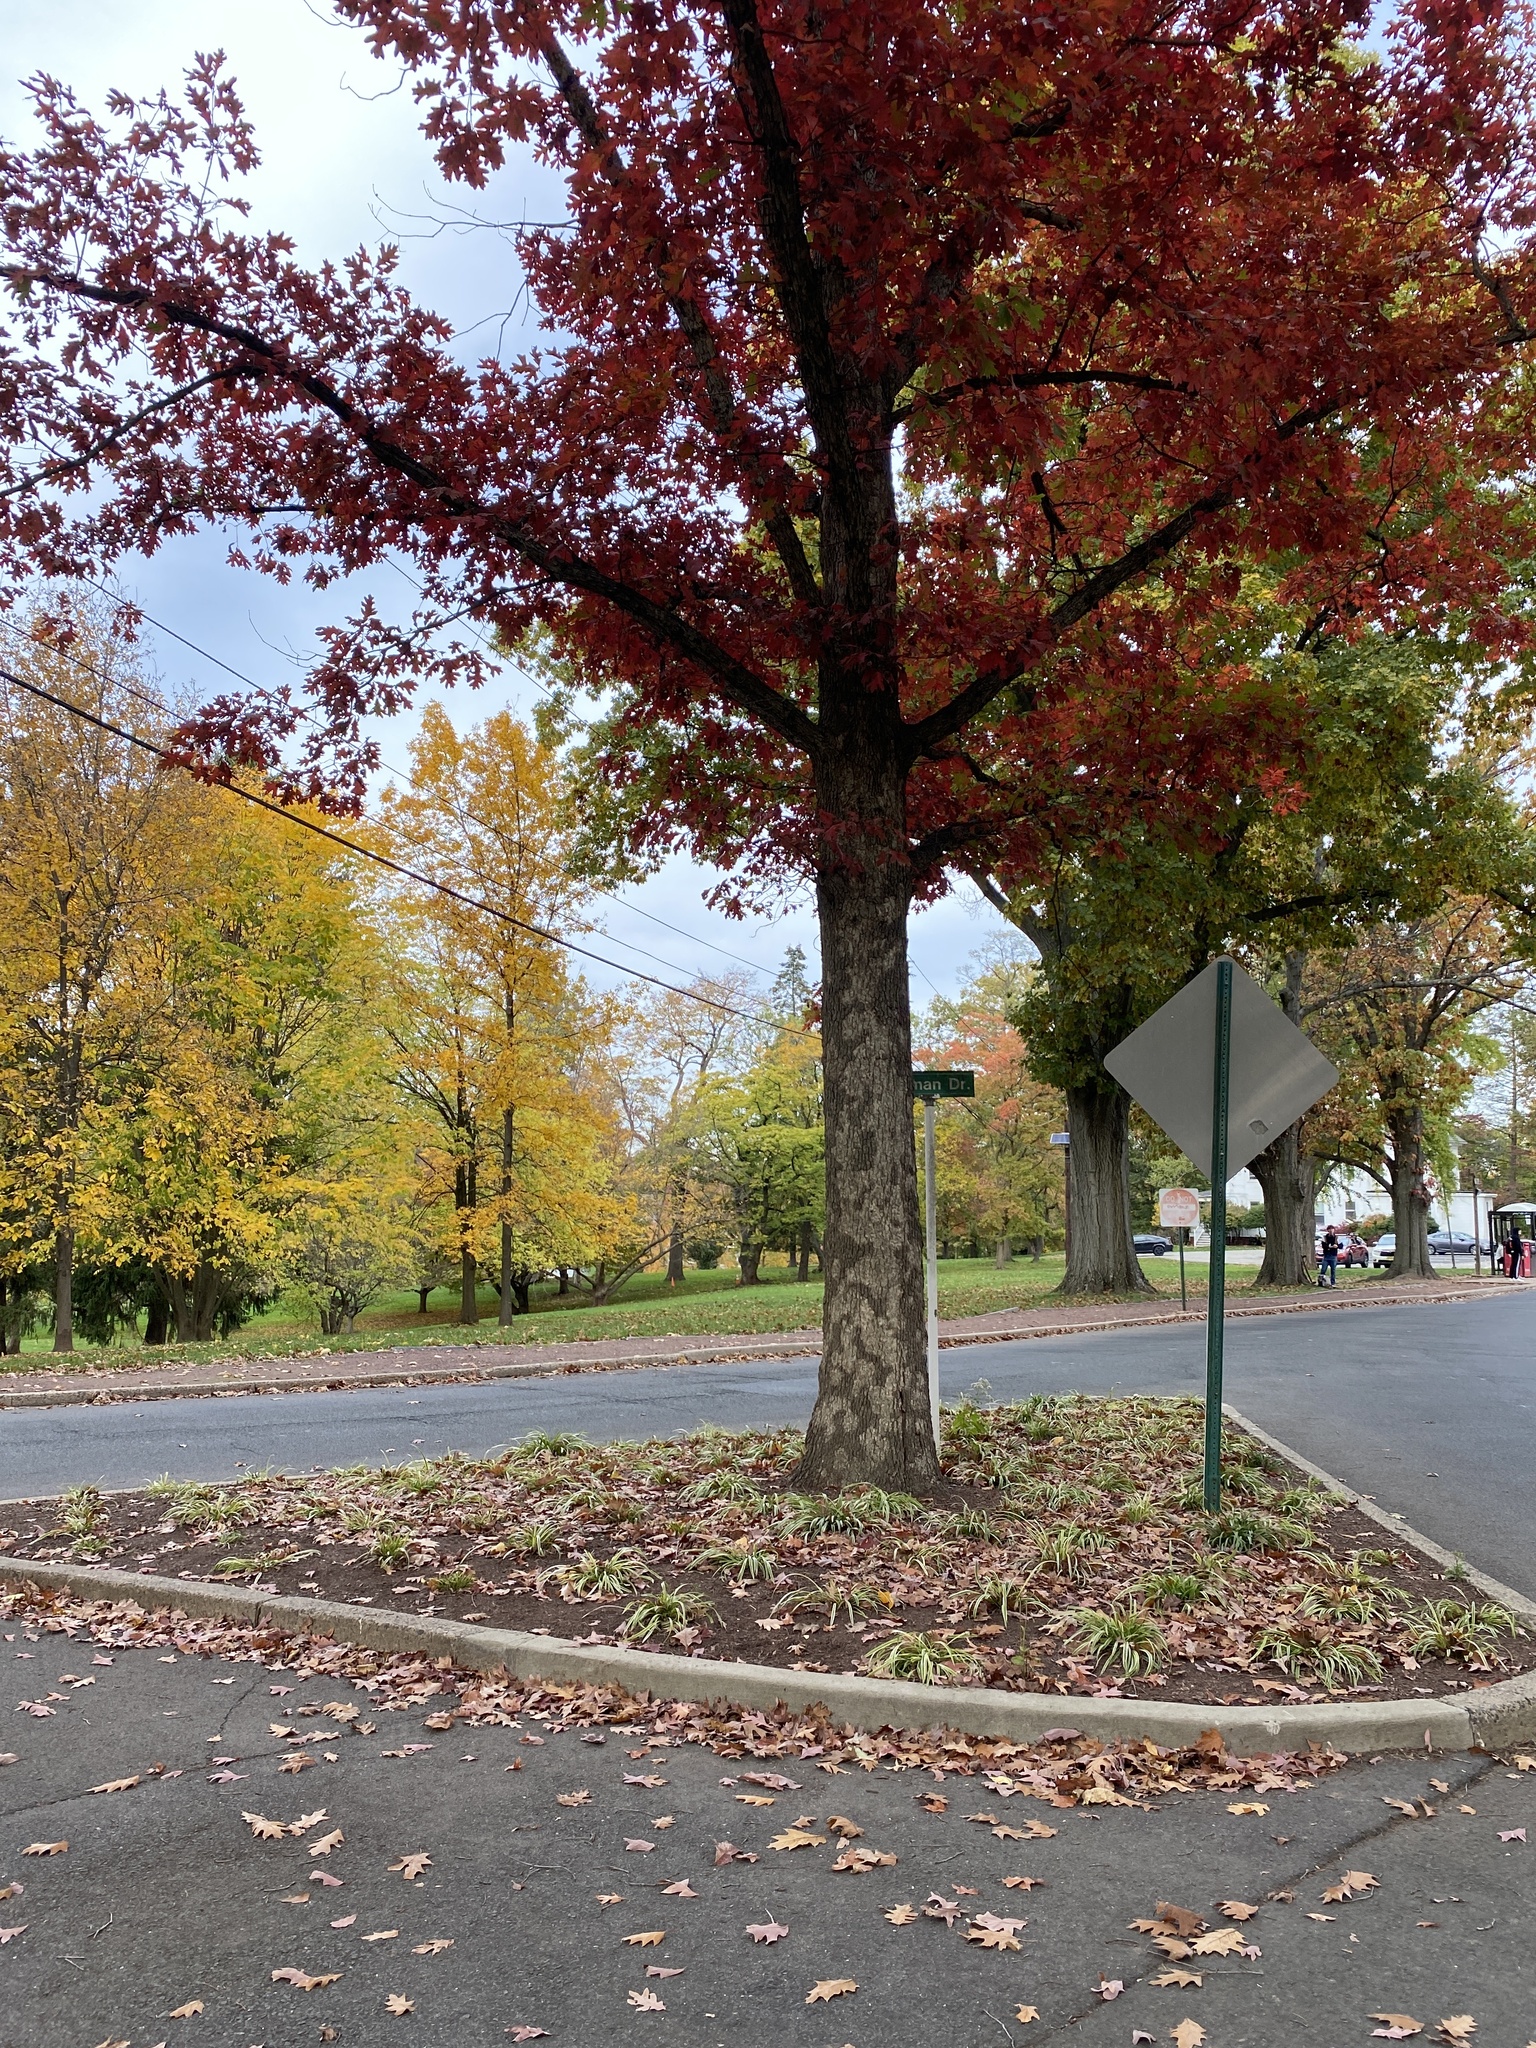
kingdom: Fungi
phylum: Basidiomycota
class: Agaricomycetes
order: Russulales
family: Stereaceae
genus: Acanthophysium
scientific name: Acanthophysium oakesii
